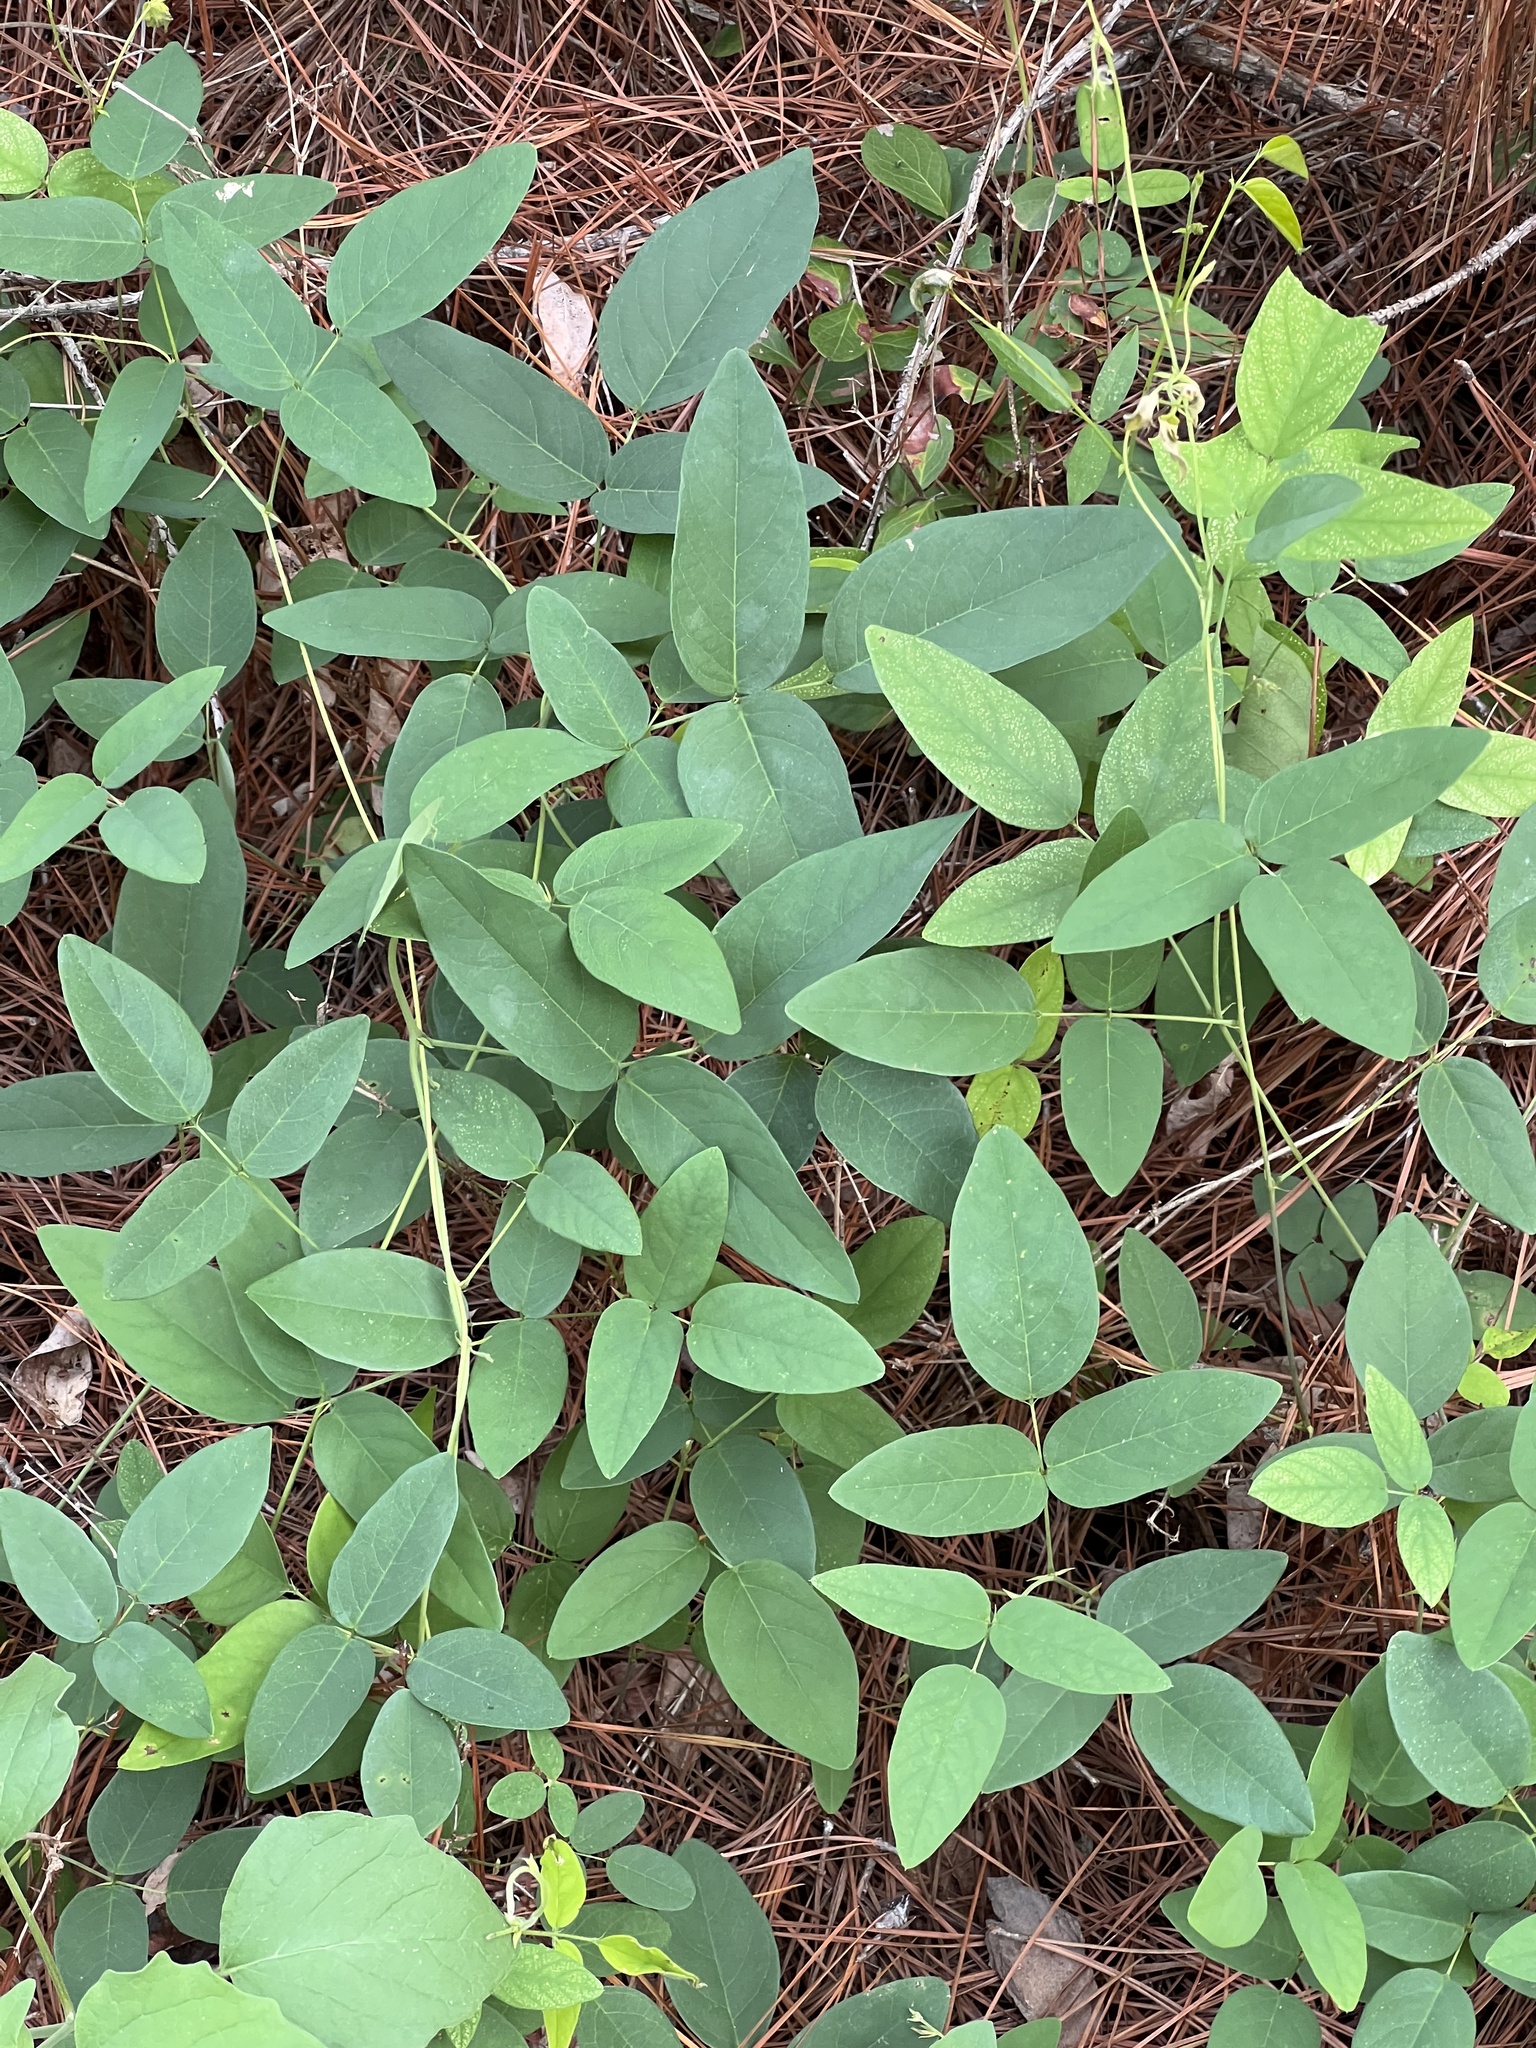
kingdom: Plantae
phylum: Tracheophyta
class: Magnoliopsida
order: Fabales
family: Fabaceae
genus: Clitoria
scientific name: Clitoria mariana
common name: Butterfly-pea
